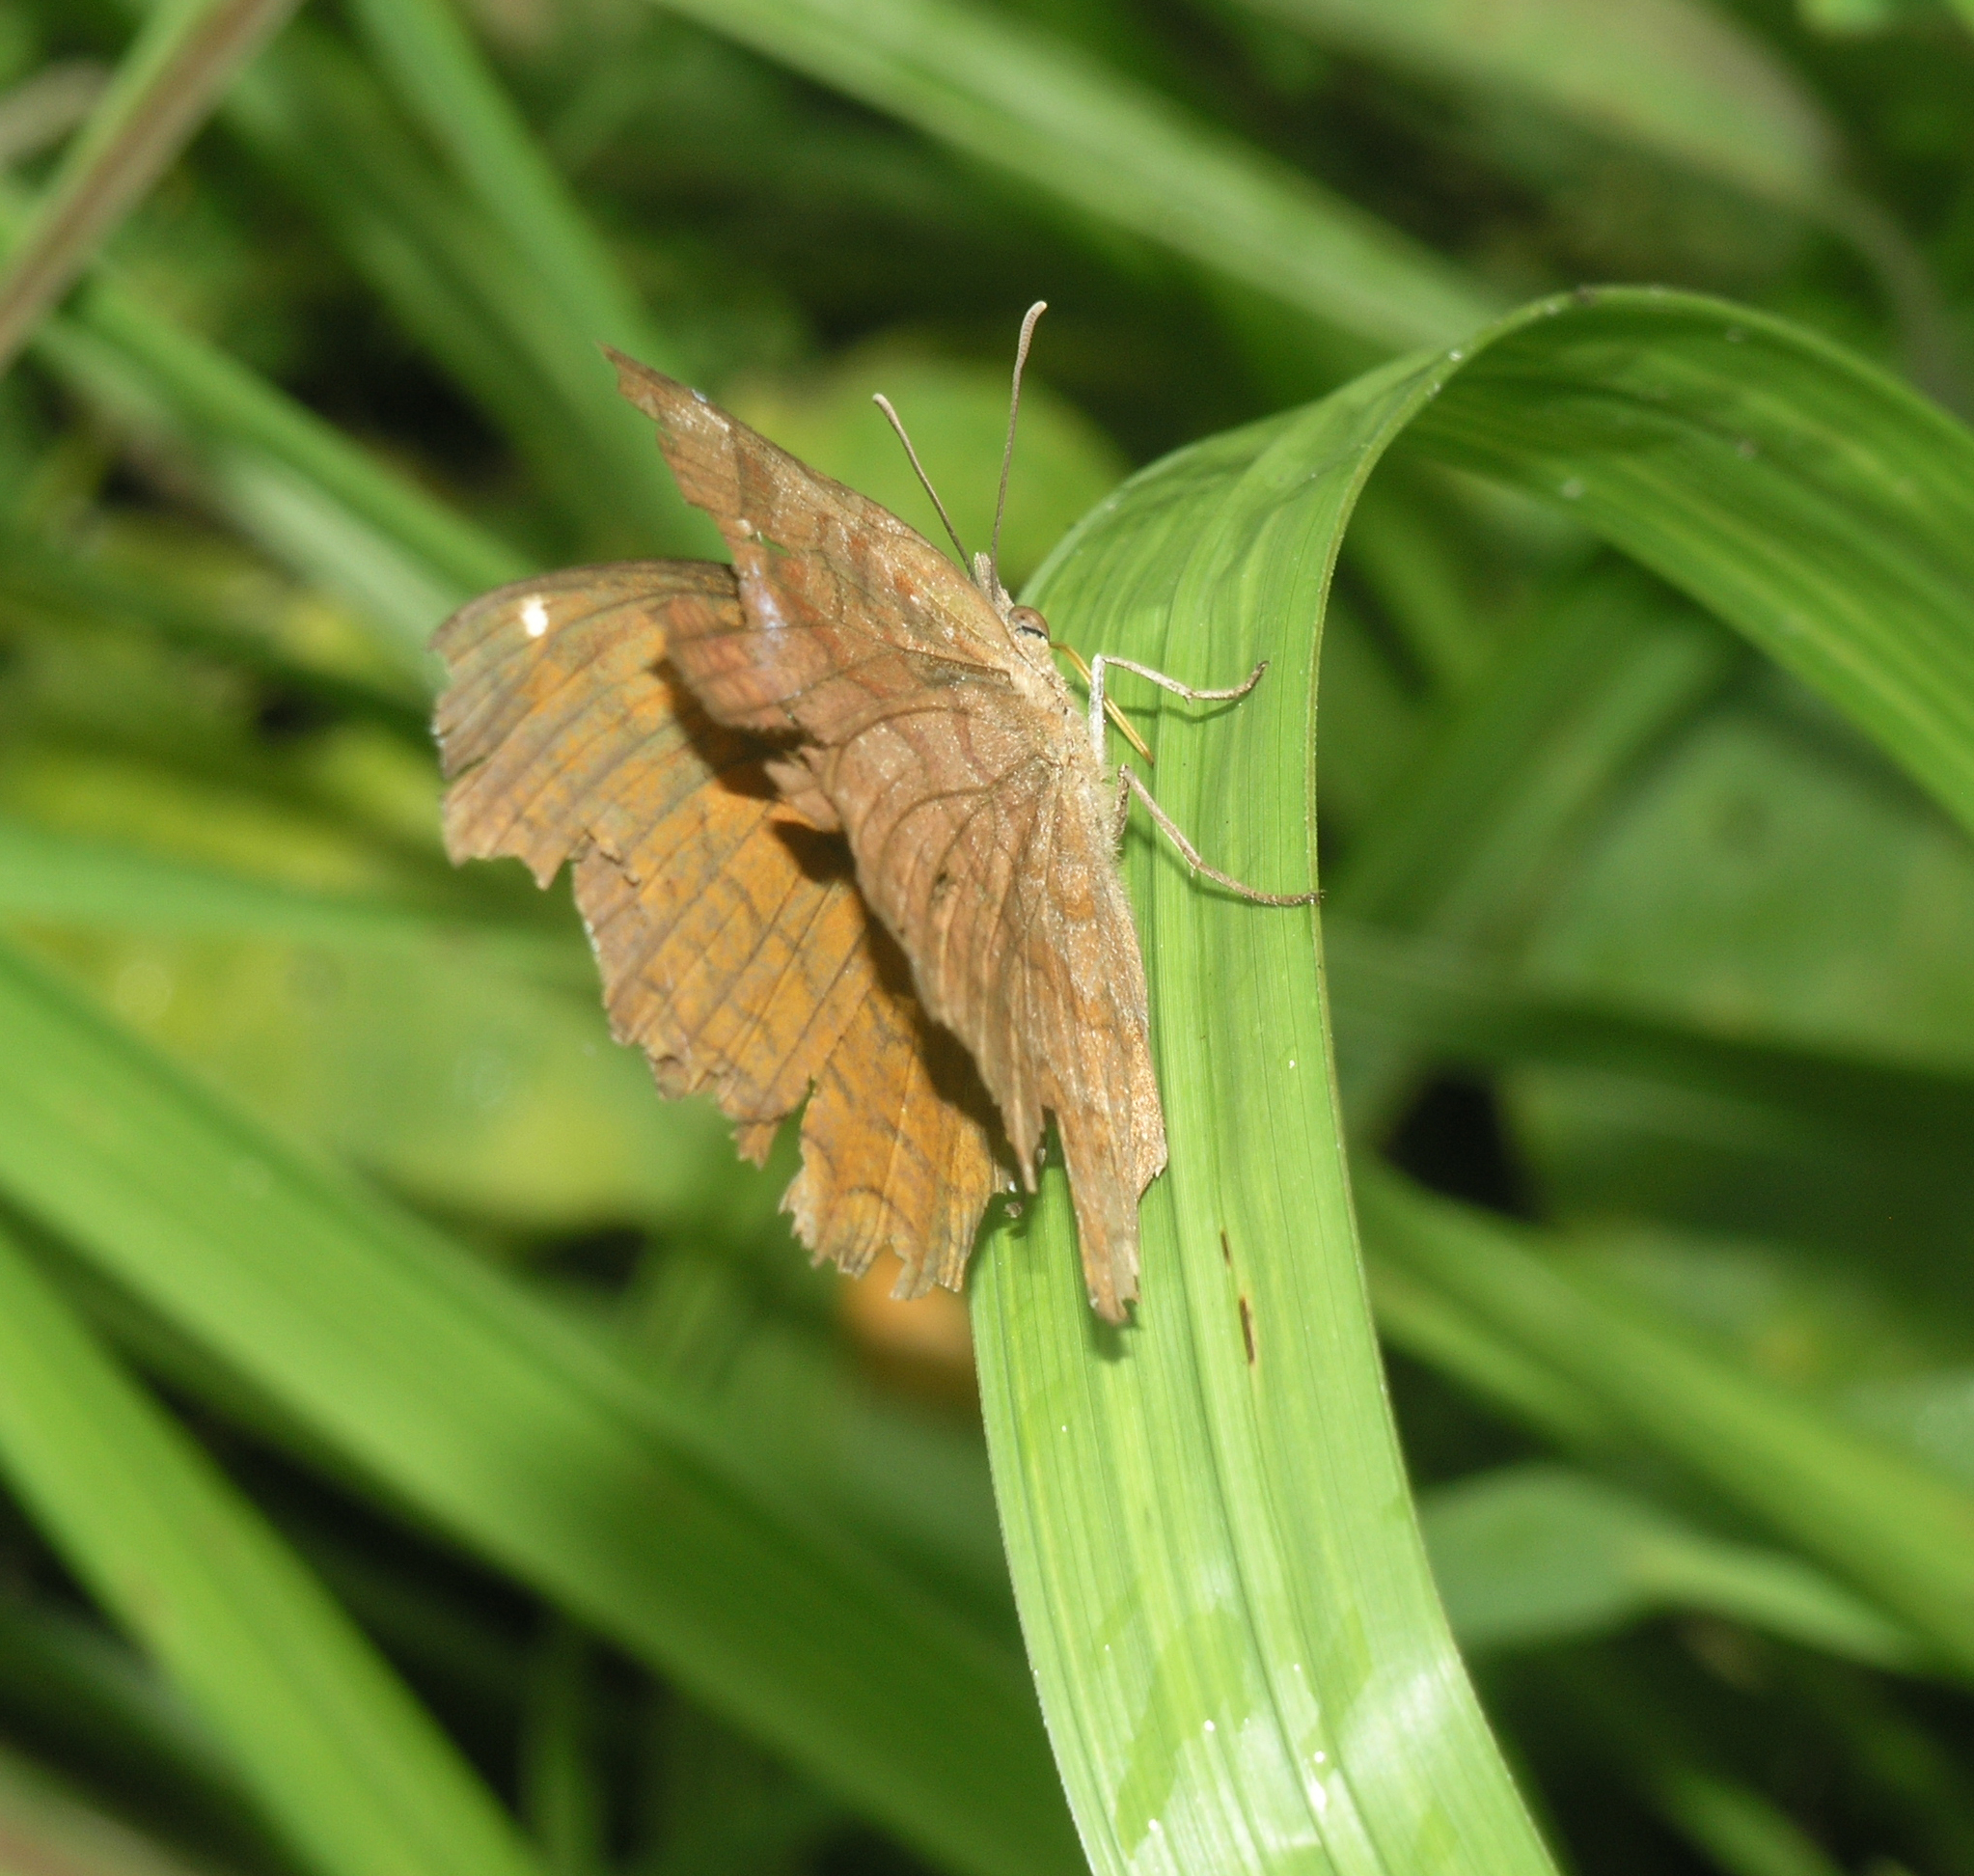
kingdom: Animalia
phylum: Arthropoda
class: Insecta
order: Lepidoptera
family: Nymphalidae
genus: Ariadne
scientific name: Ariadne ariadne
